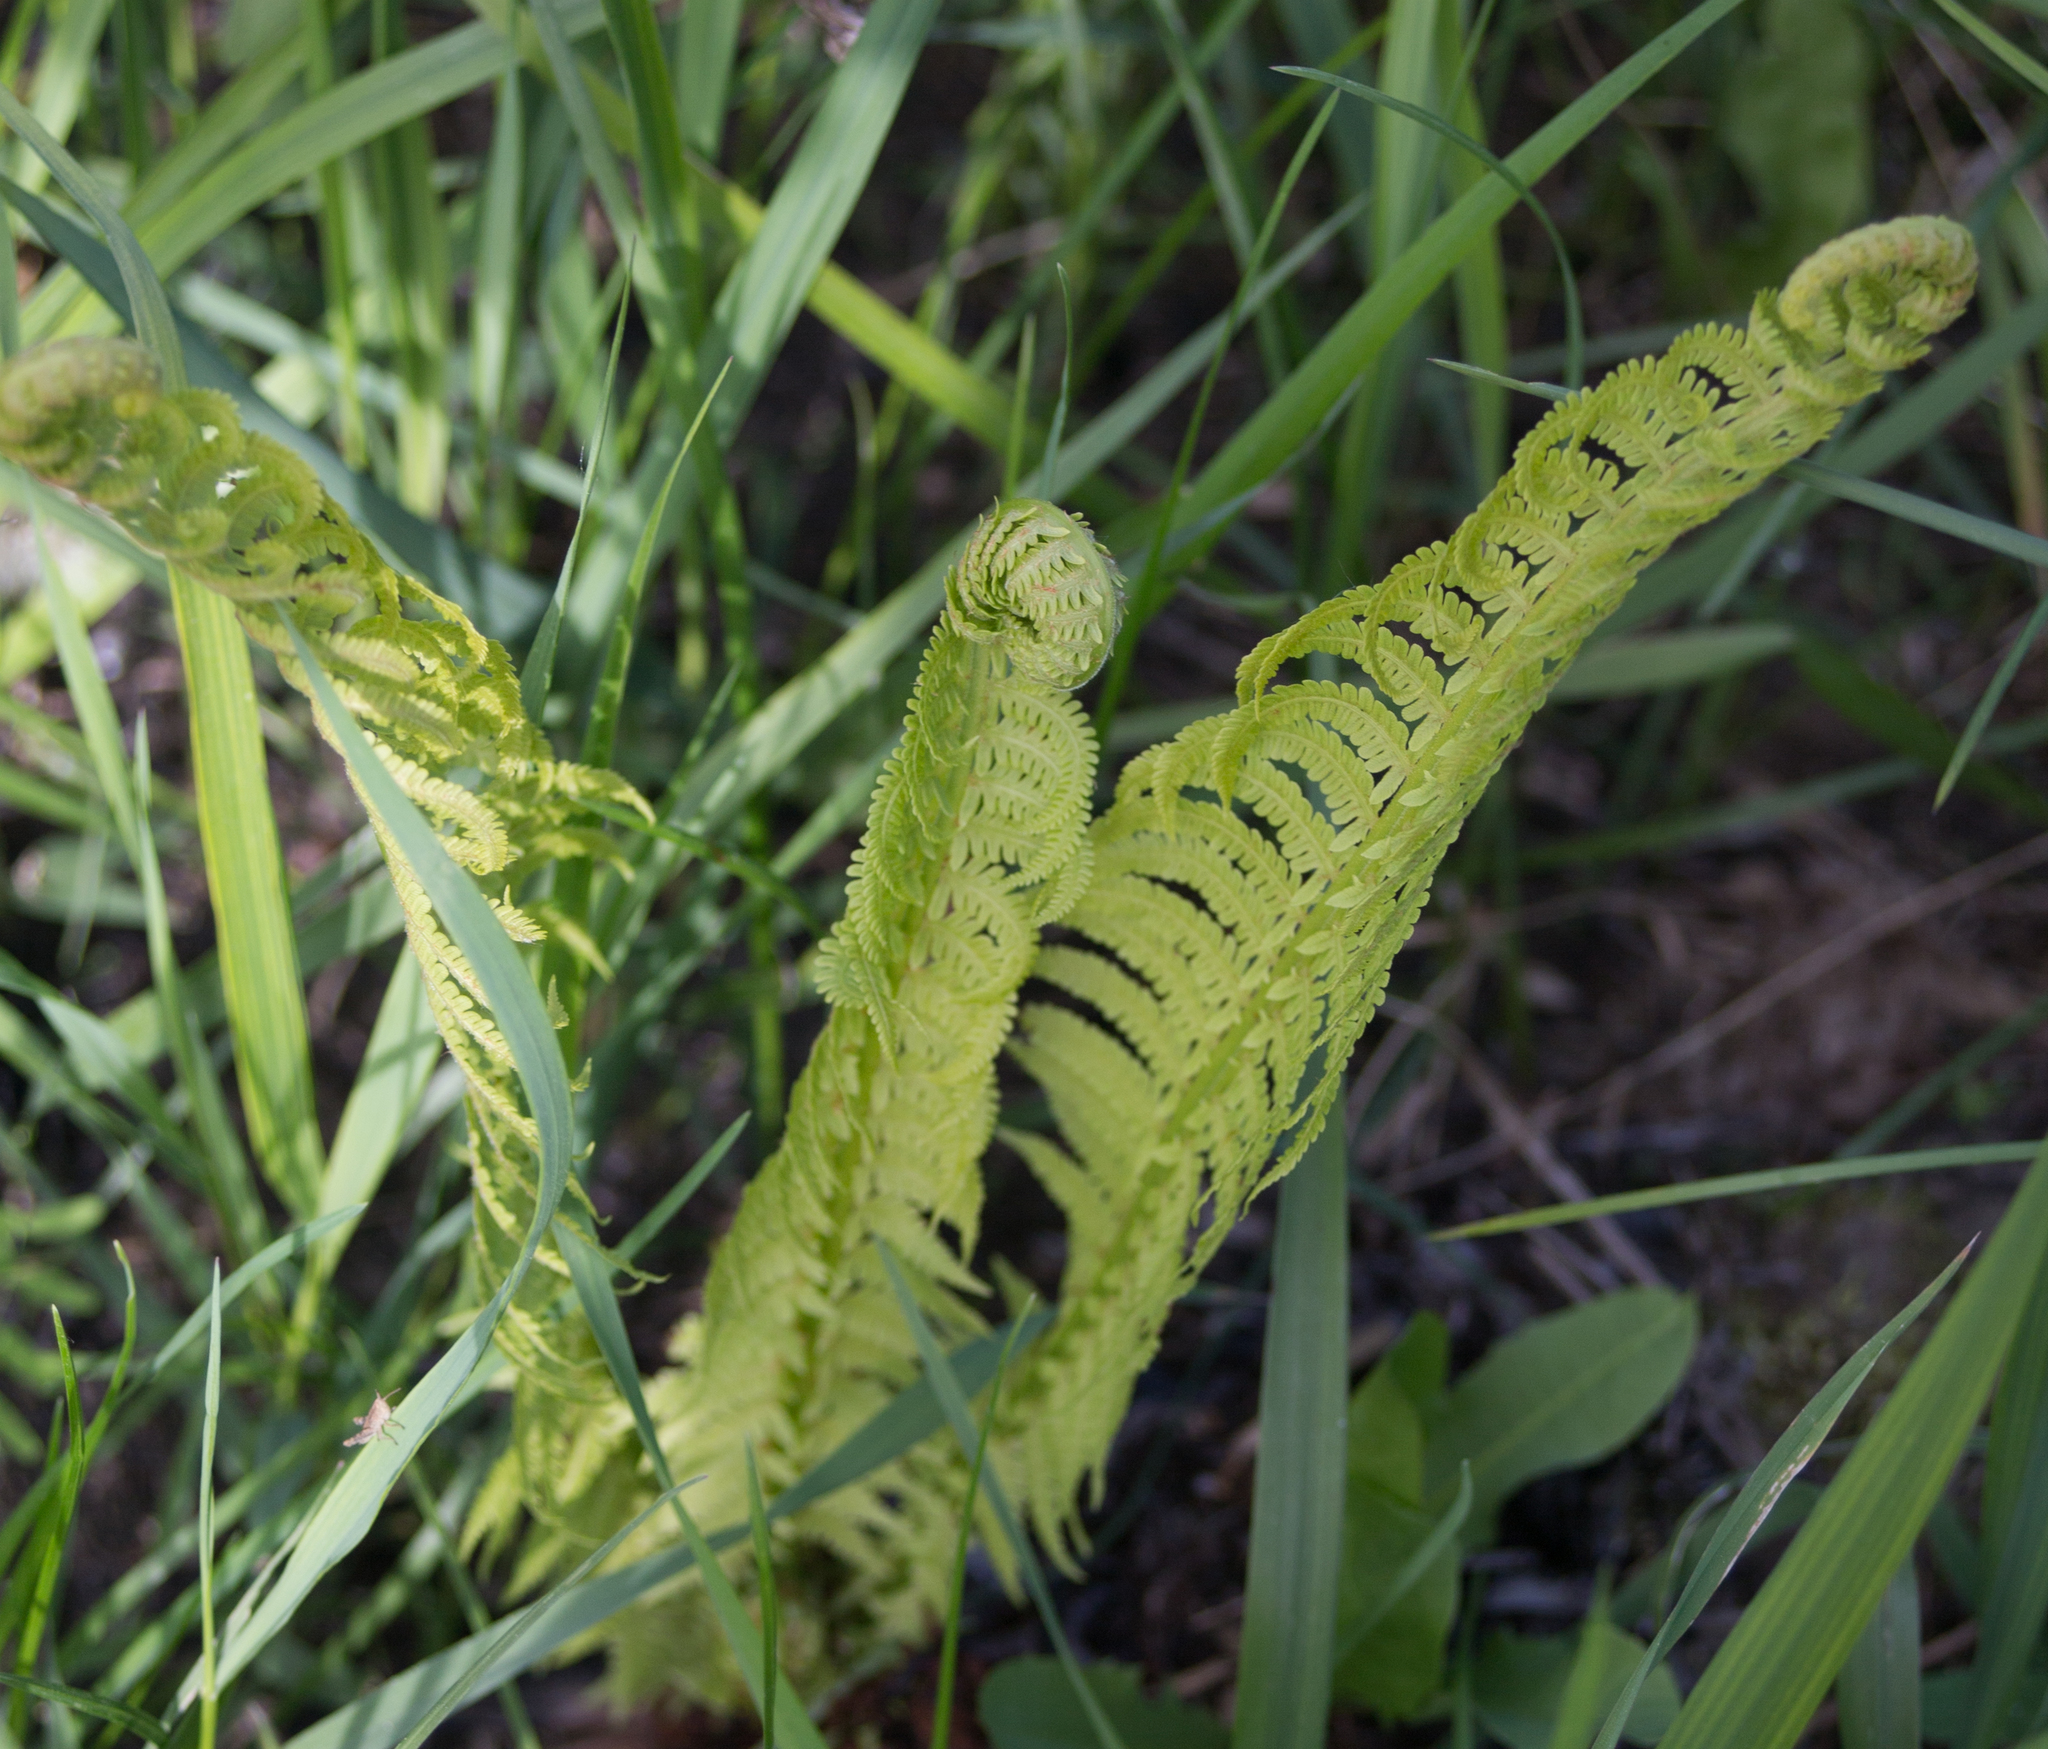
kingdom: Plantae
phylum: Tracheophyta
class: Polypodiopsida
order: Polypodiales
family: Onocleaceae
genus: Matteuccia
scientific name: Matteuccia struthiopteris
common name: Ostrich fern
